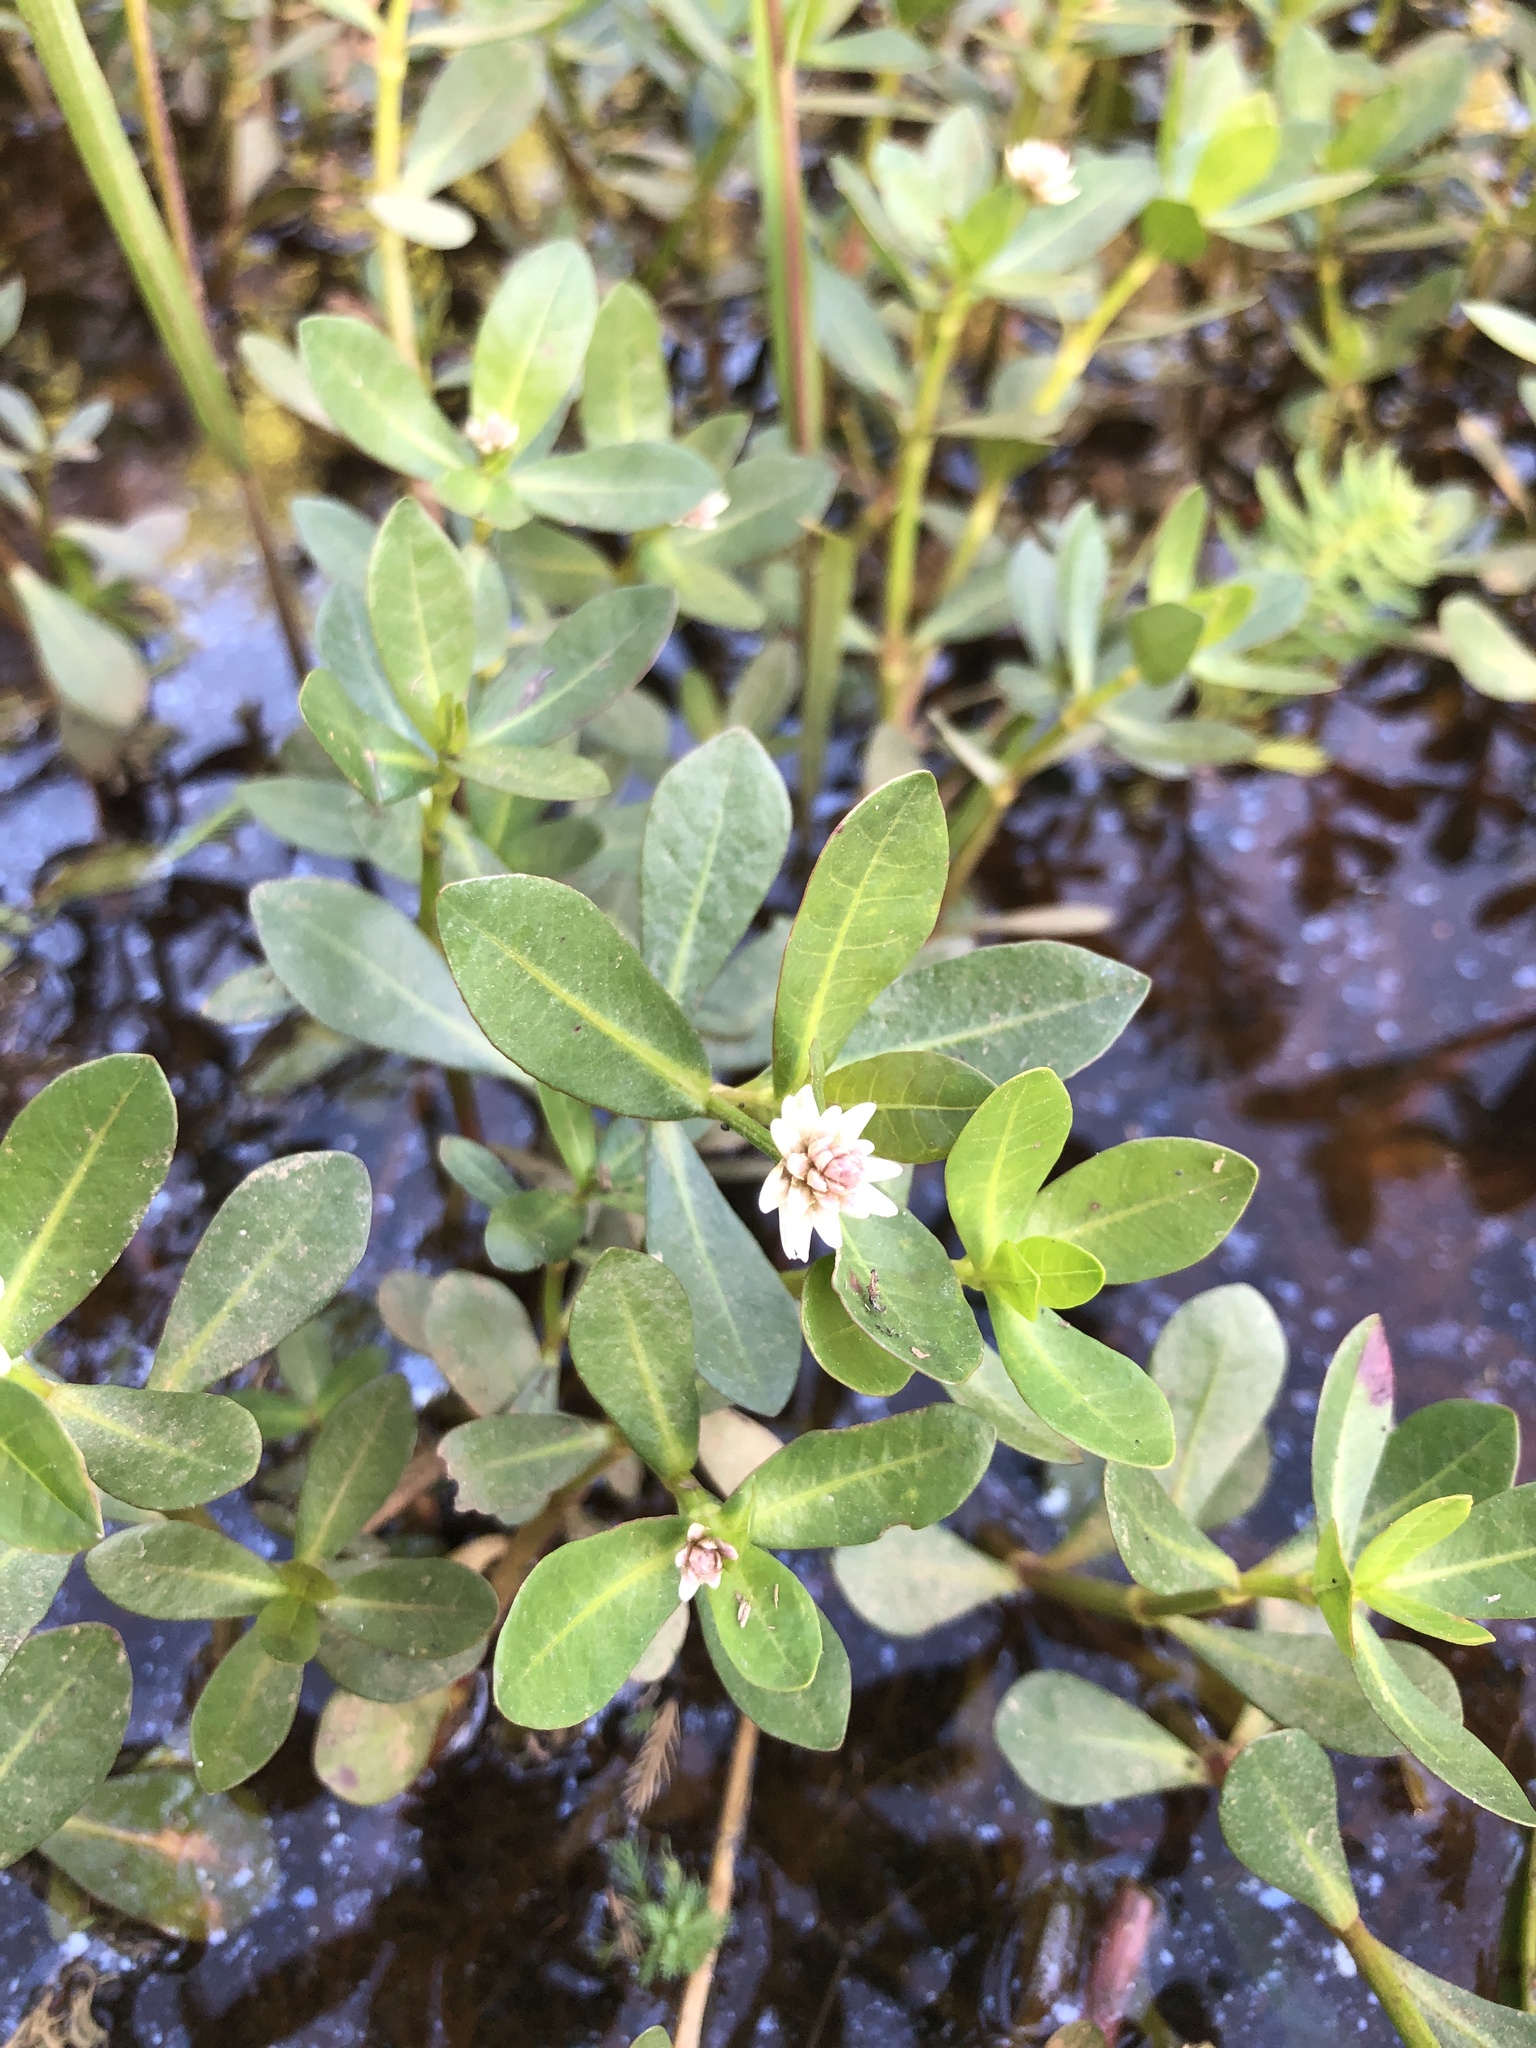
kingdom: Plantae
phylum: Tracheophyta
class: Magnoliopsida
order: Caryophyllales
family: Amaranthaceae
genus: Alternanthera
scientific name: Alternanthera philoxeroides
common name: Alligatorweed
